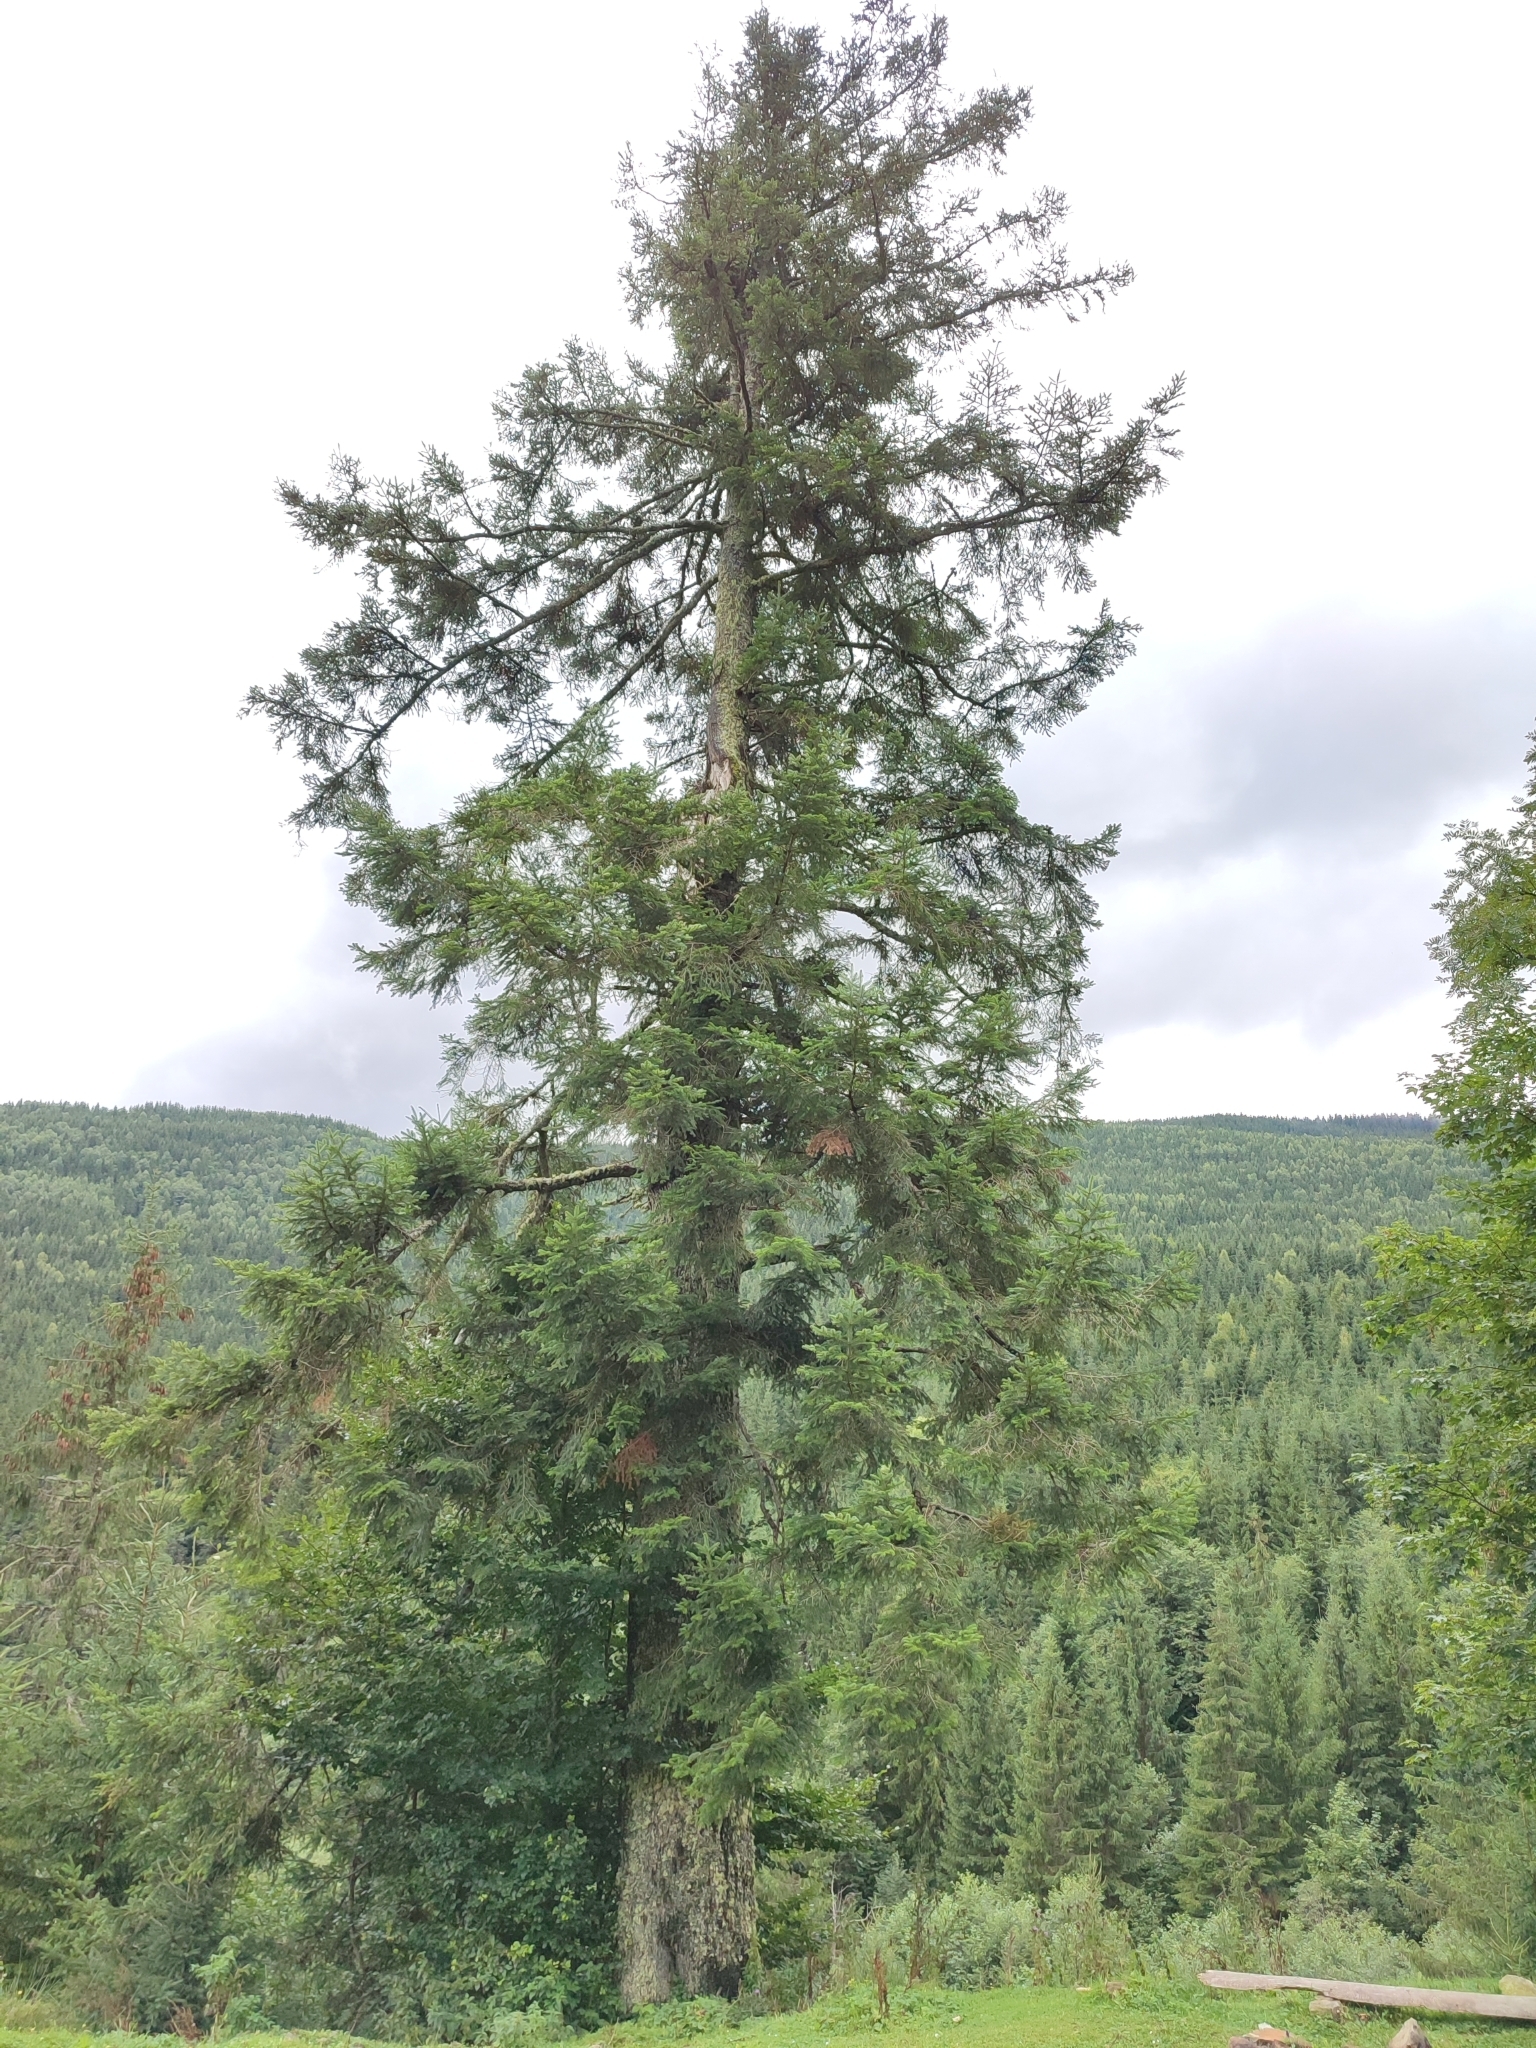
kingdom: Plantae
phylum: Tracheophyta
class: Pinopsida
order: Pinales
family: Pinaceae
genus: Picea
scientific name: Picea abies
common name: Norway spruce
